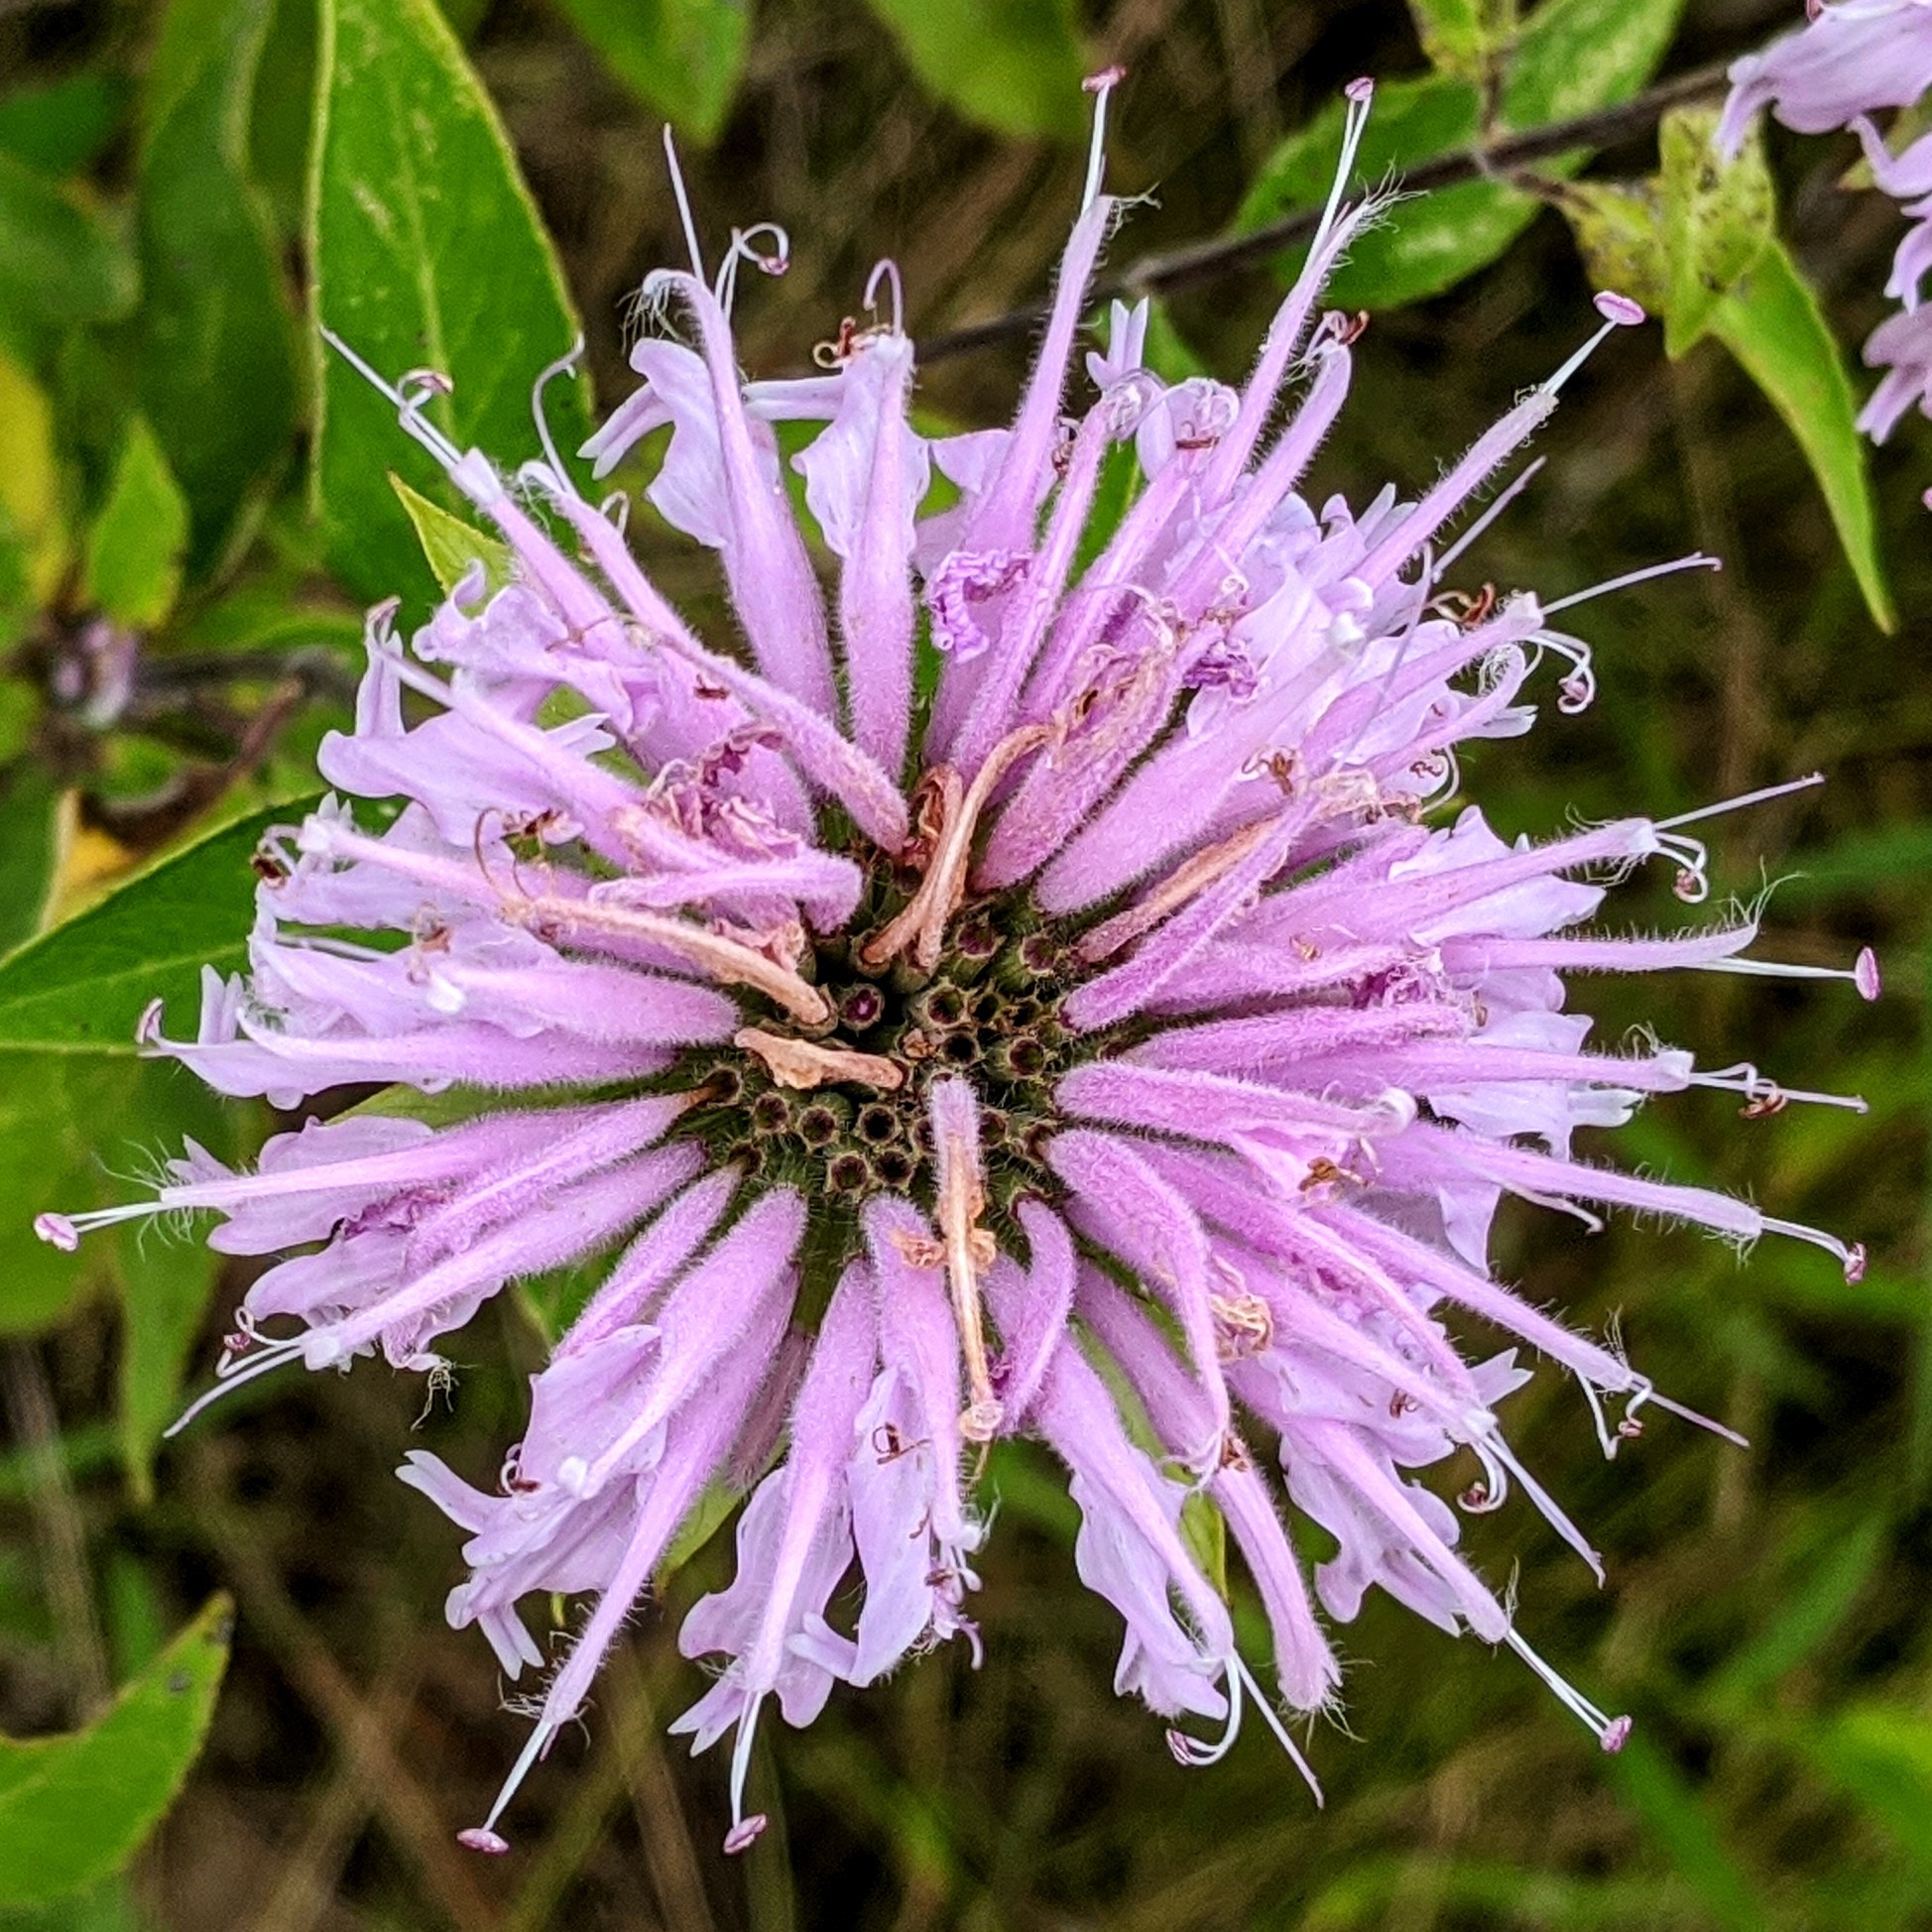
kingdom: Plantae
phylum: Tracheophyta
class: Magnoliopsida
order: Lamiales
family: Lamiaceae
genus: Monarda
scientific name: Monarda fistulosa
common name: Purple beebalm
